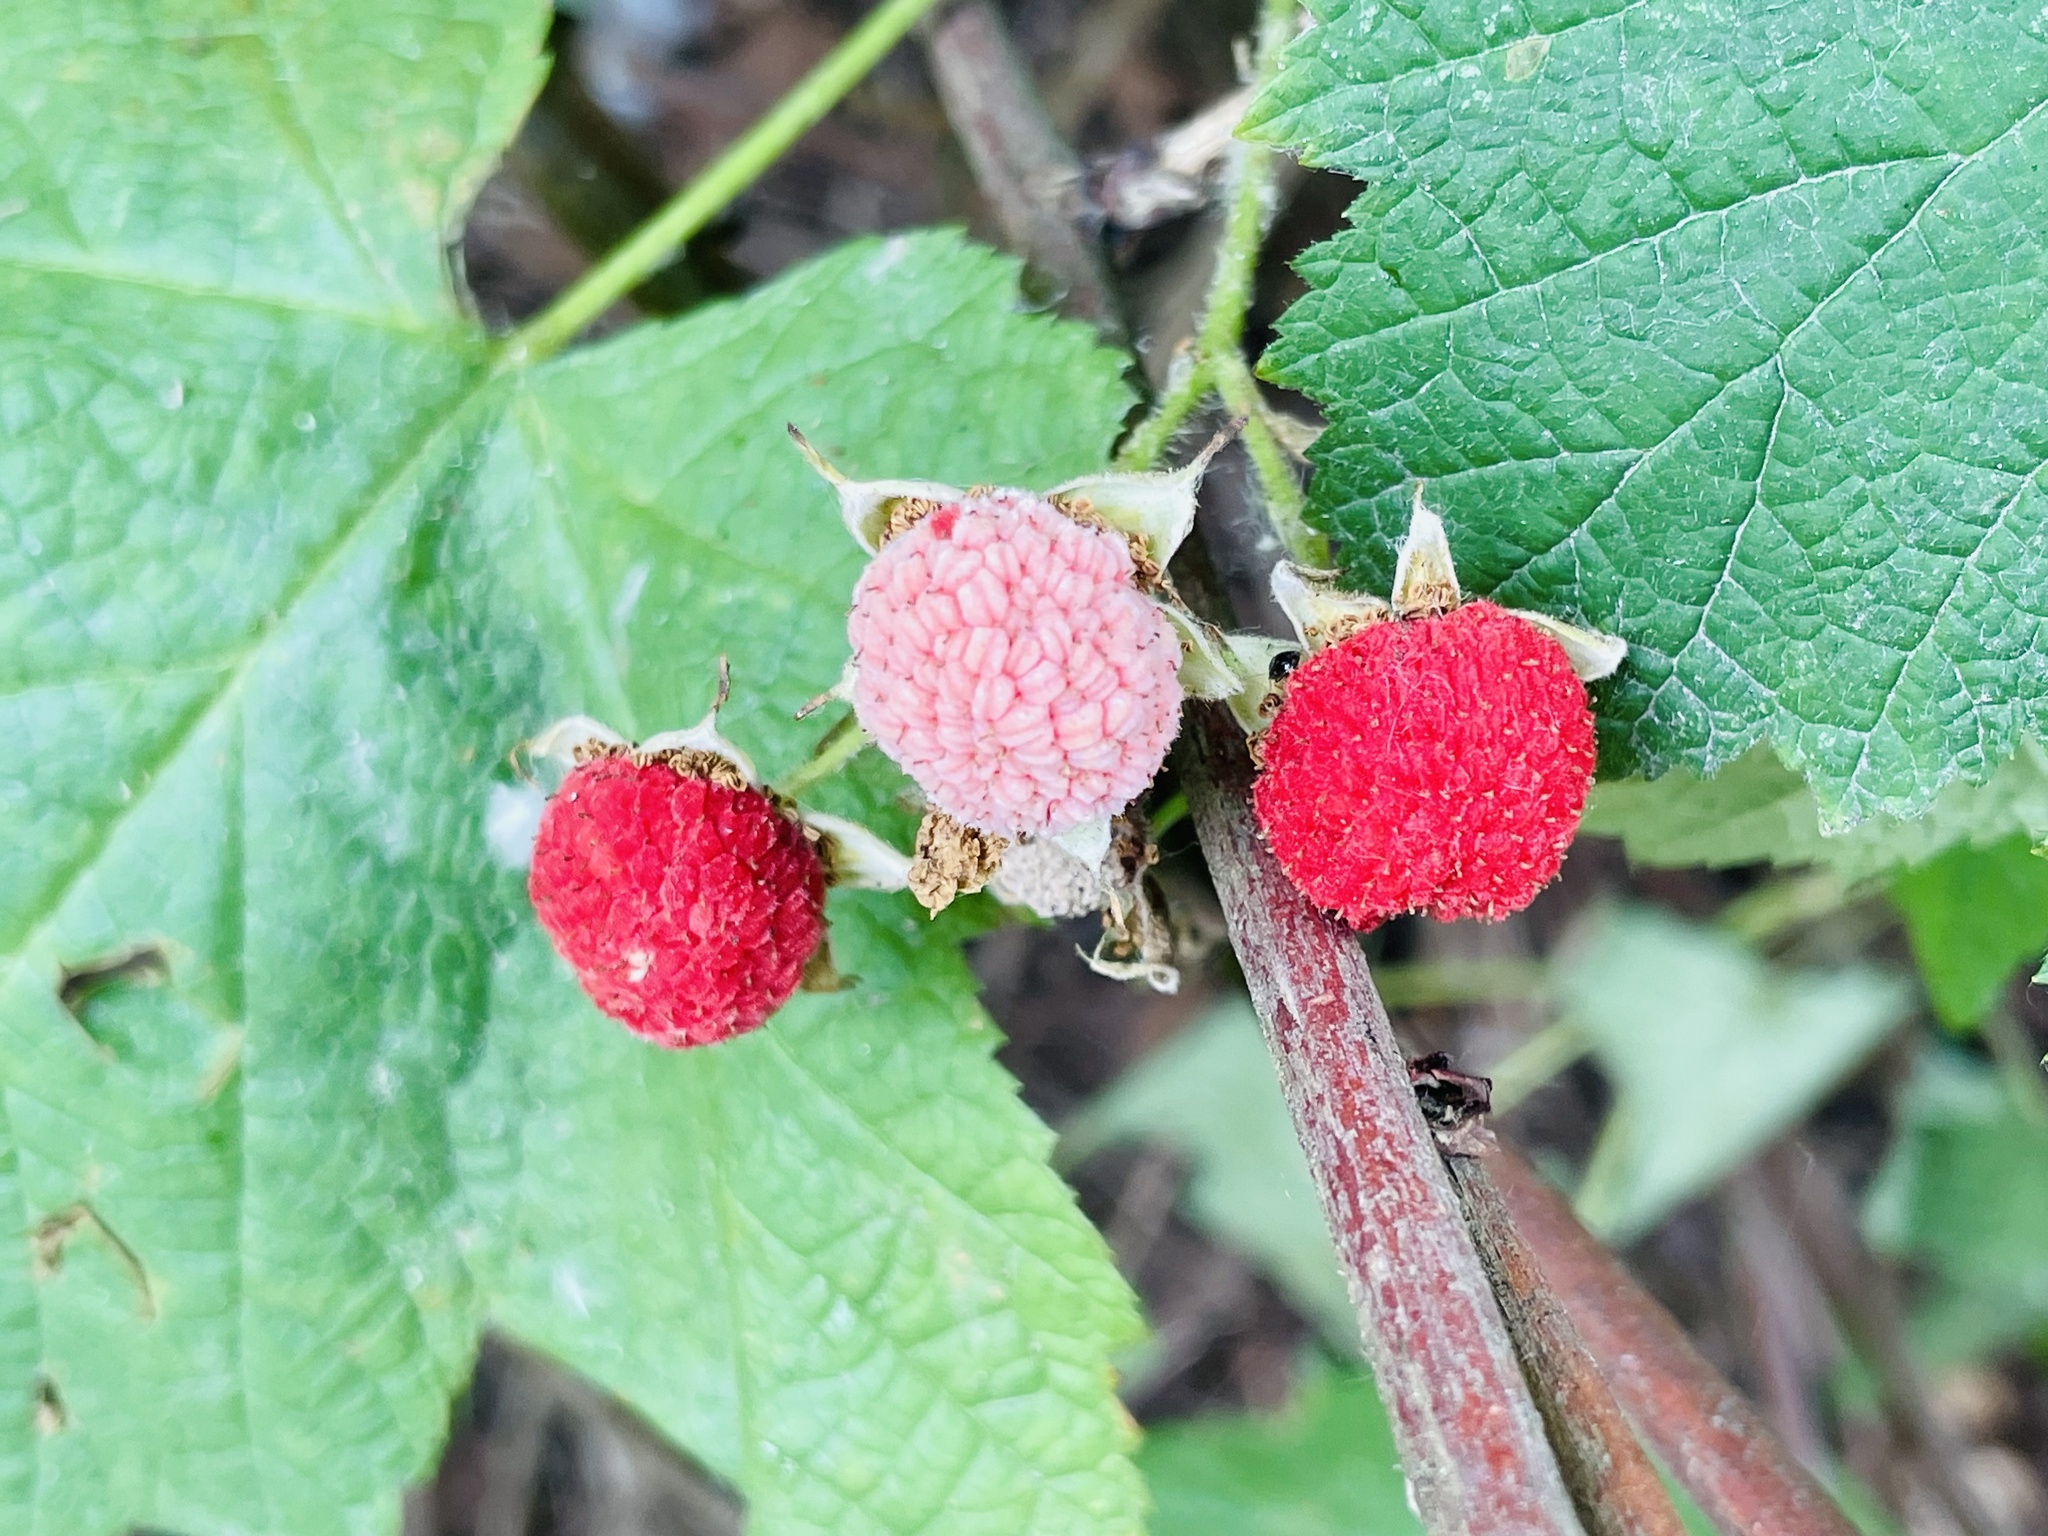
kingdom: Plantae
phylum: Tracheophyta
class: Magnoliopsida
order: Rosales
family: Rosaceae
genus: Rubus
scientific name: Rubus parviflorus
